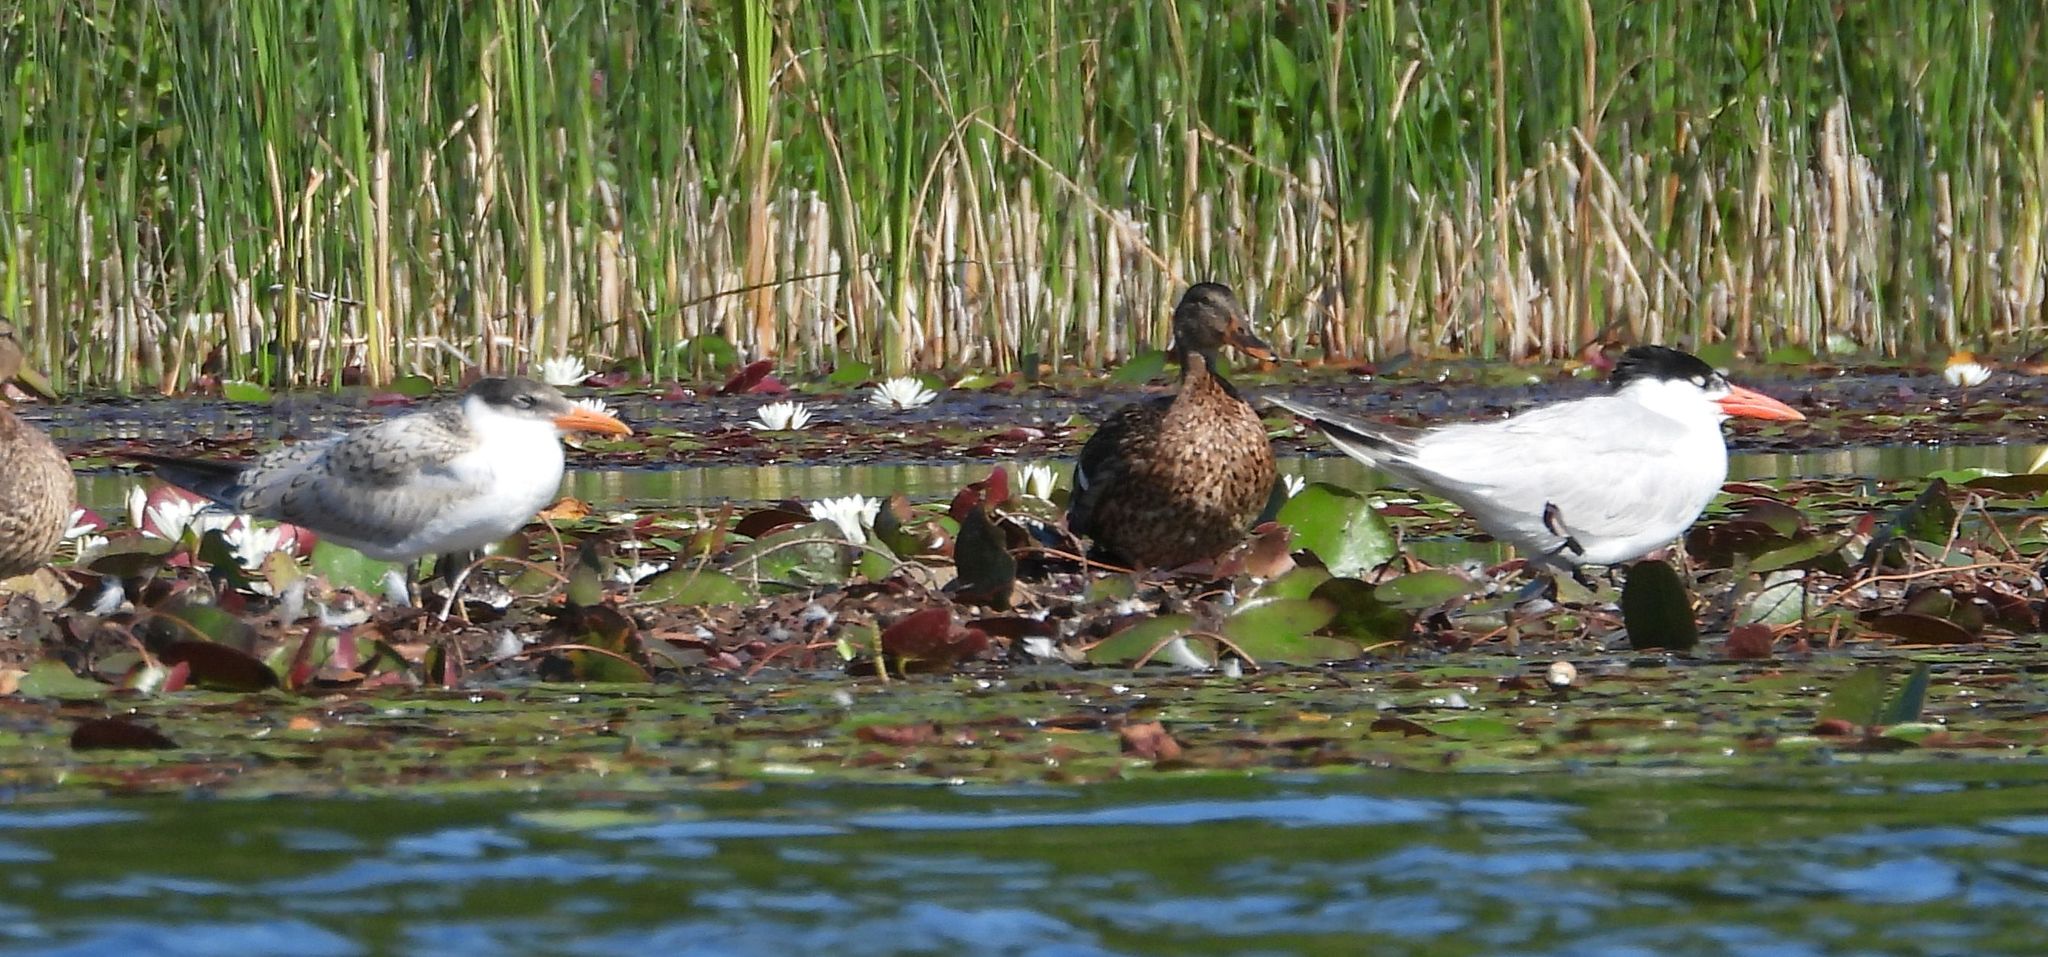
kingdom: Animalia
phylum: Chordata
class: Aves
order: Charadriiformes
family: Laridae
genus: Hydroprogne
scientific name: Hydroprogne caspia
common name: Caspian tern
